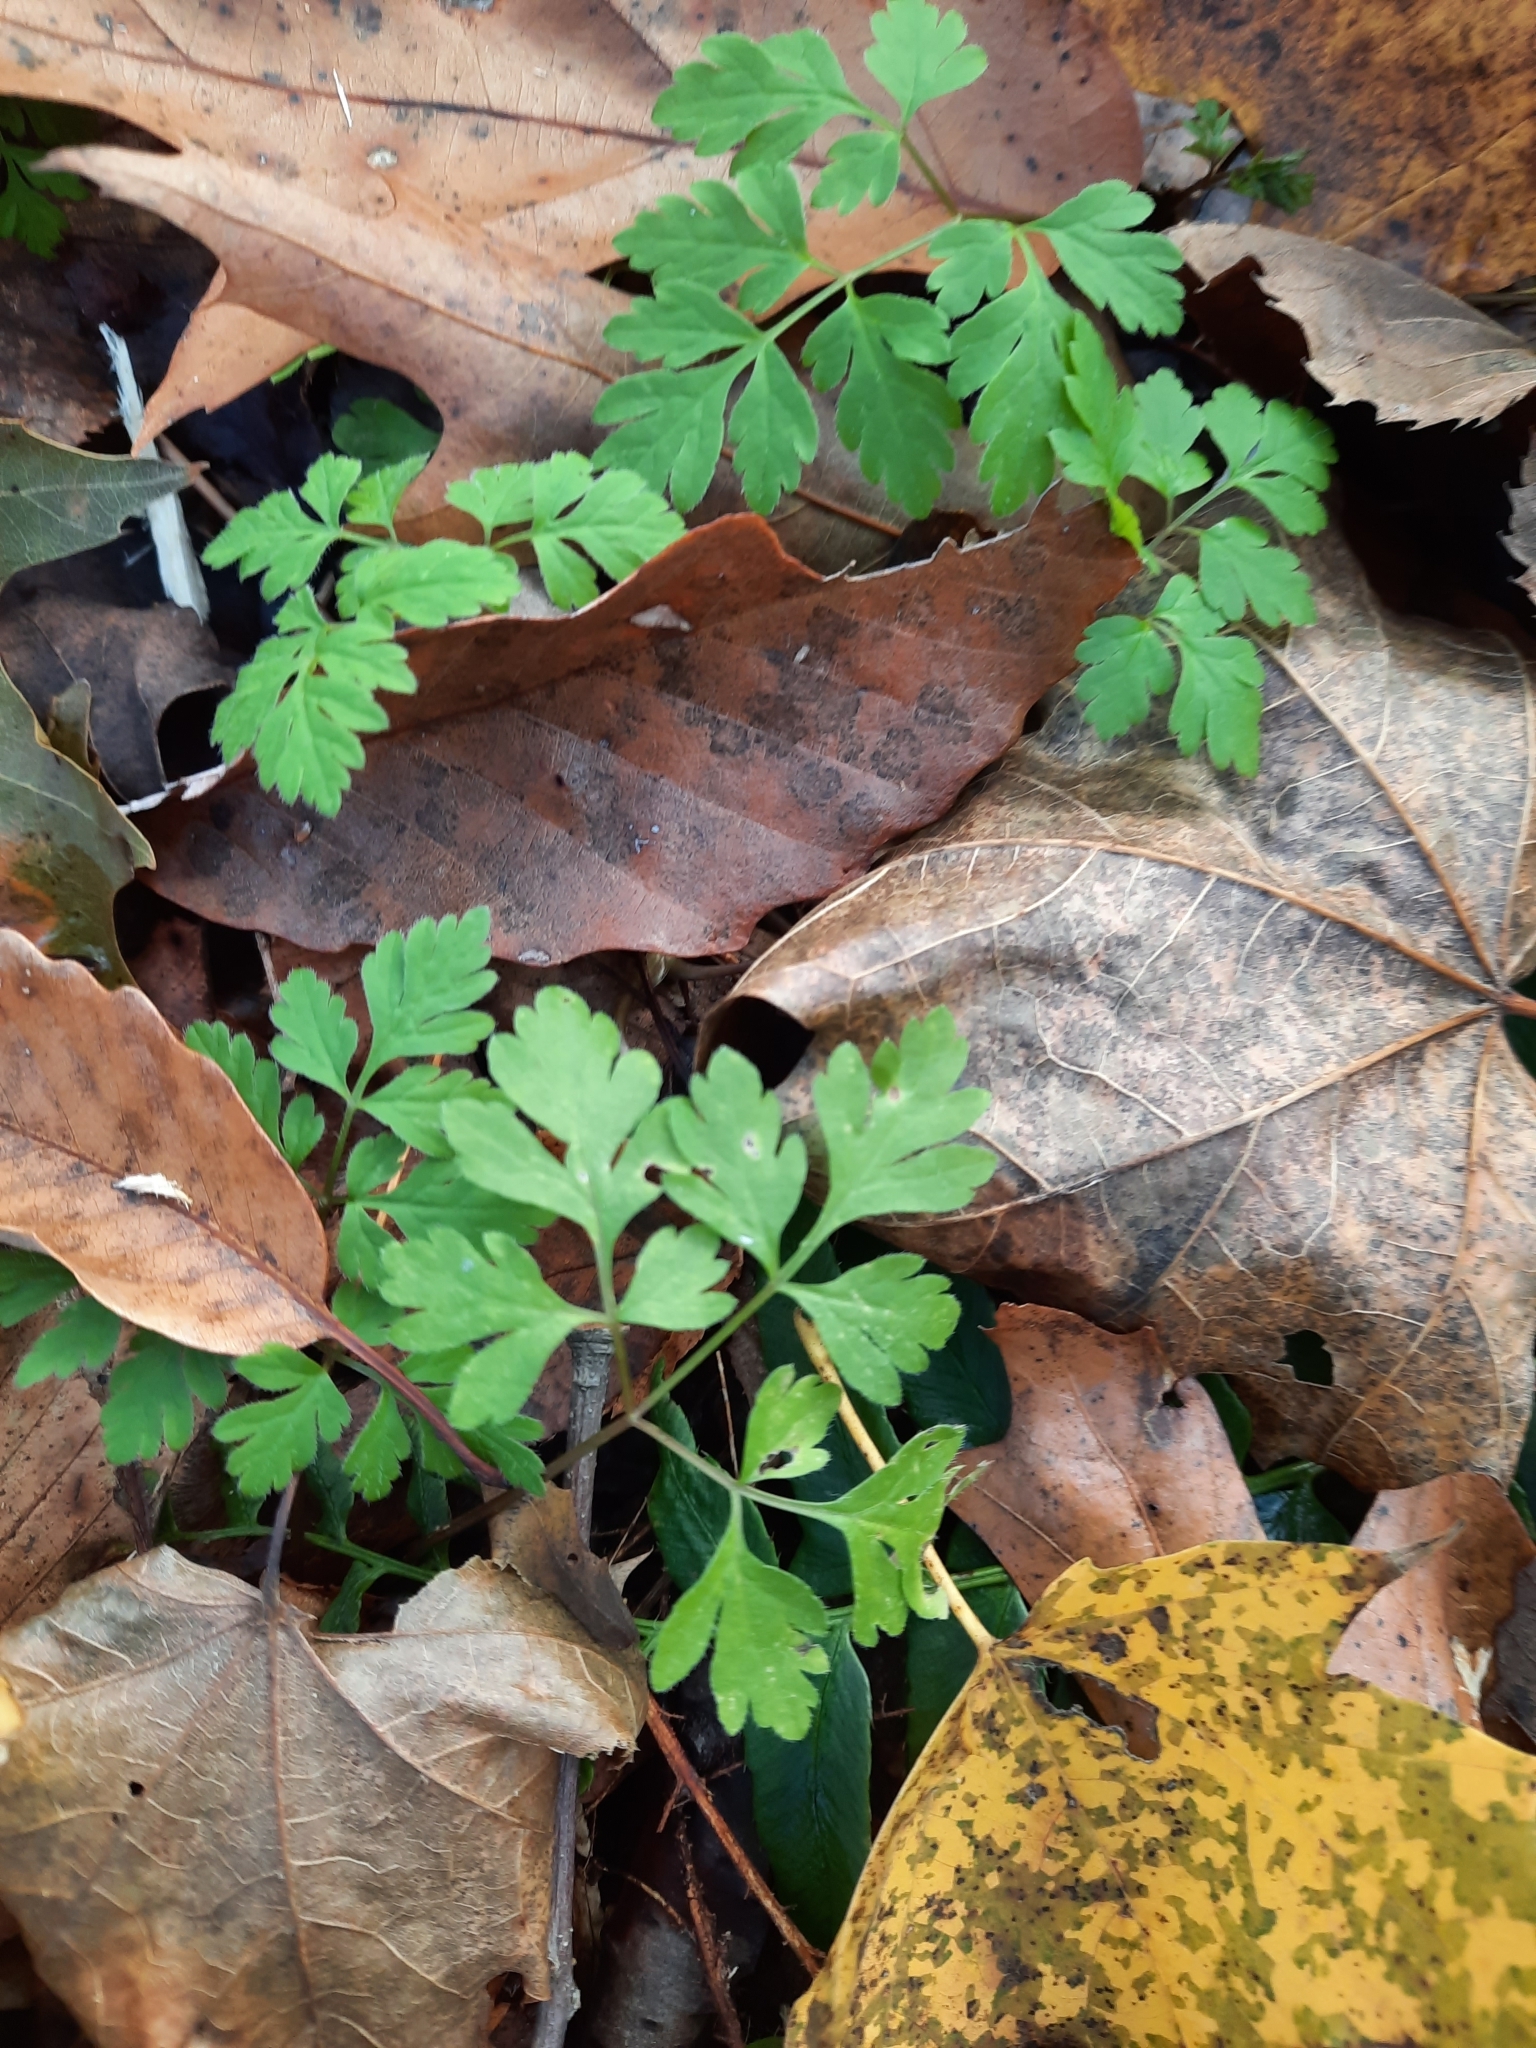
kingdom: Plantae
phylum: Tracheophyta
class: Magnoliopsida
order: Geraniales
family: Geraniaceae
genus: Geranium
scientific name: Geranium robertianum
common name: Herb-robert
